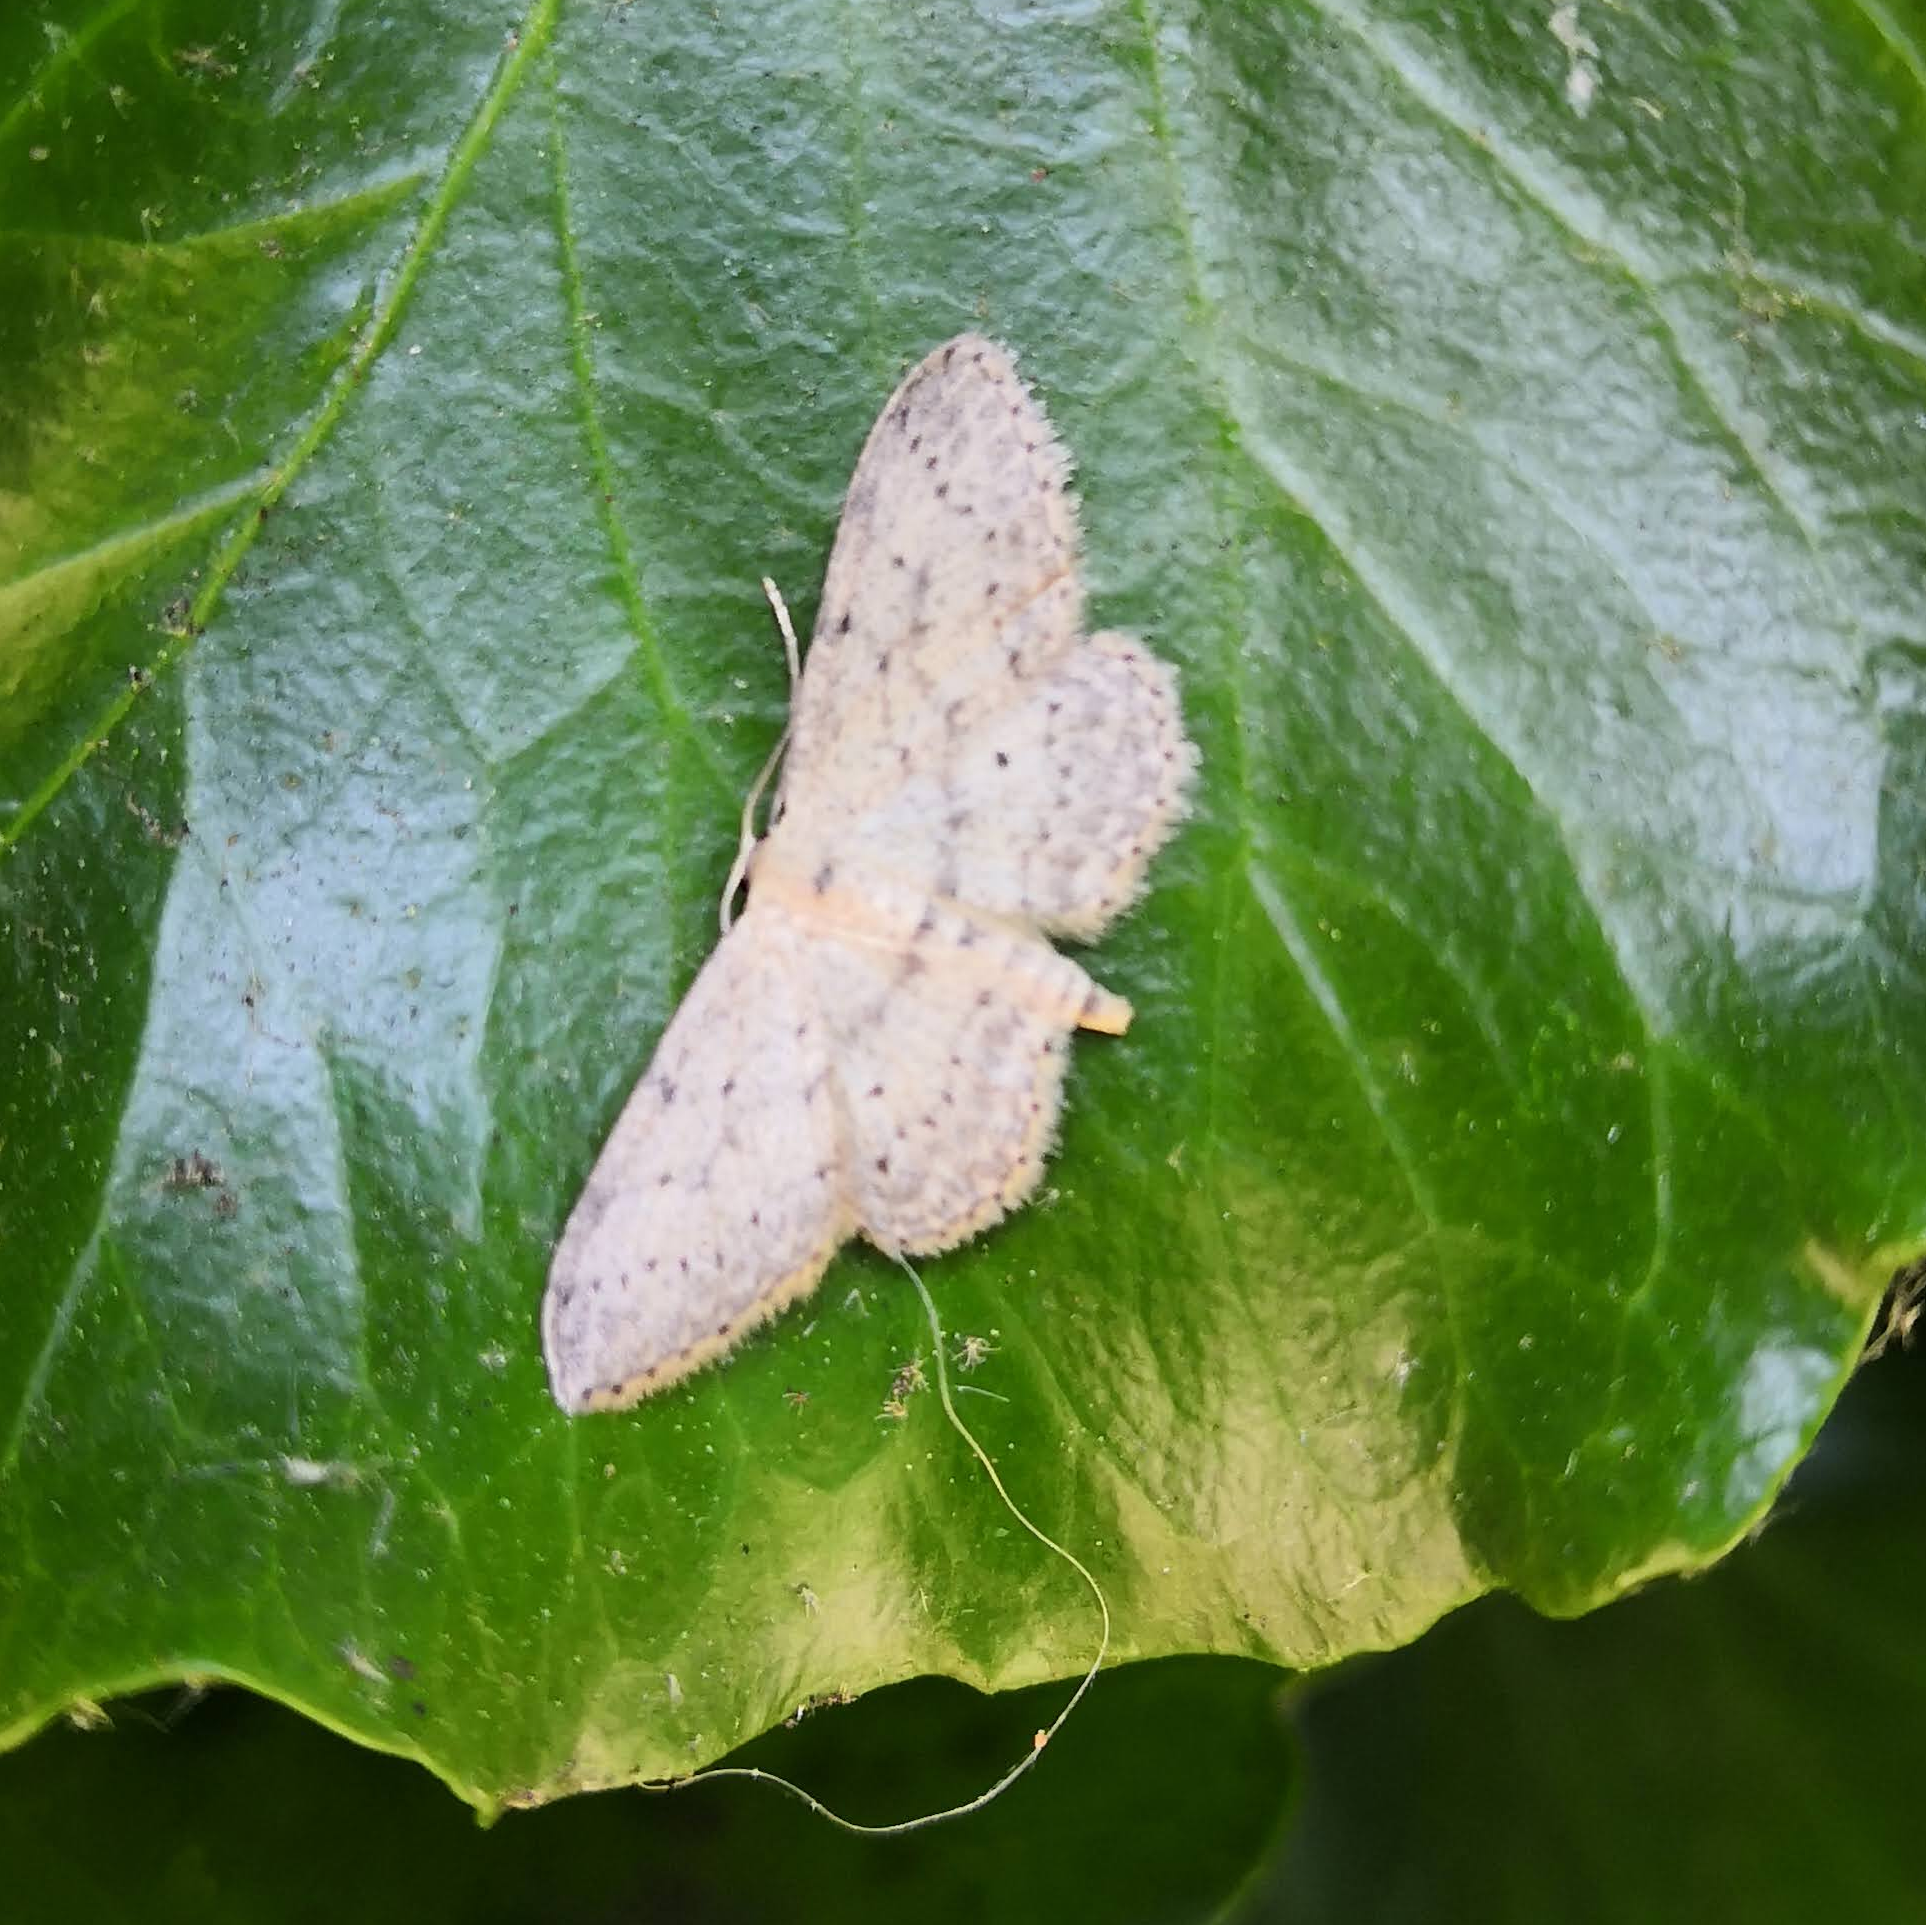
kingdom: Animalia
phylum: Arthropoda
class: Insecta
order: Lepidoptera
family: Geometridae
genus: Idaea
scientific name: Idaea seriata
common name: Small dusty wave
